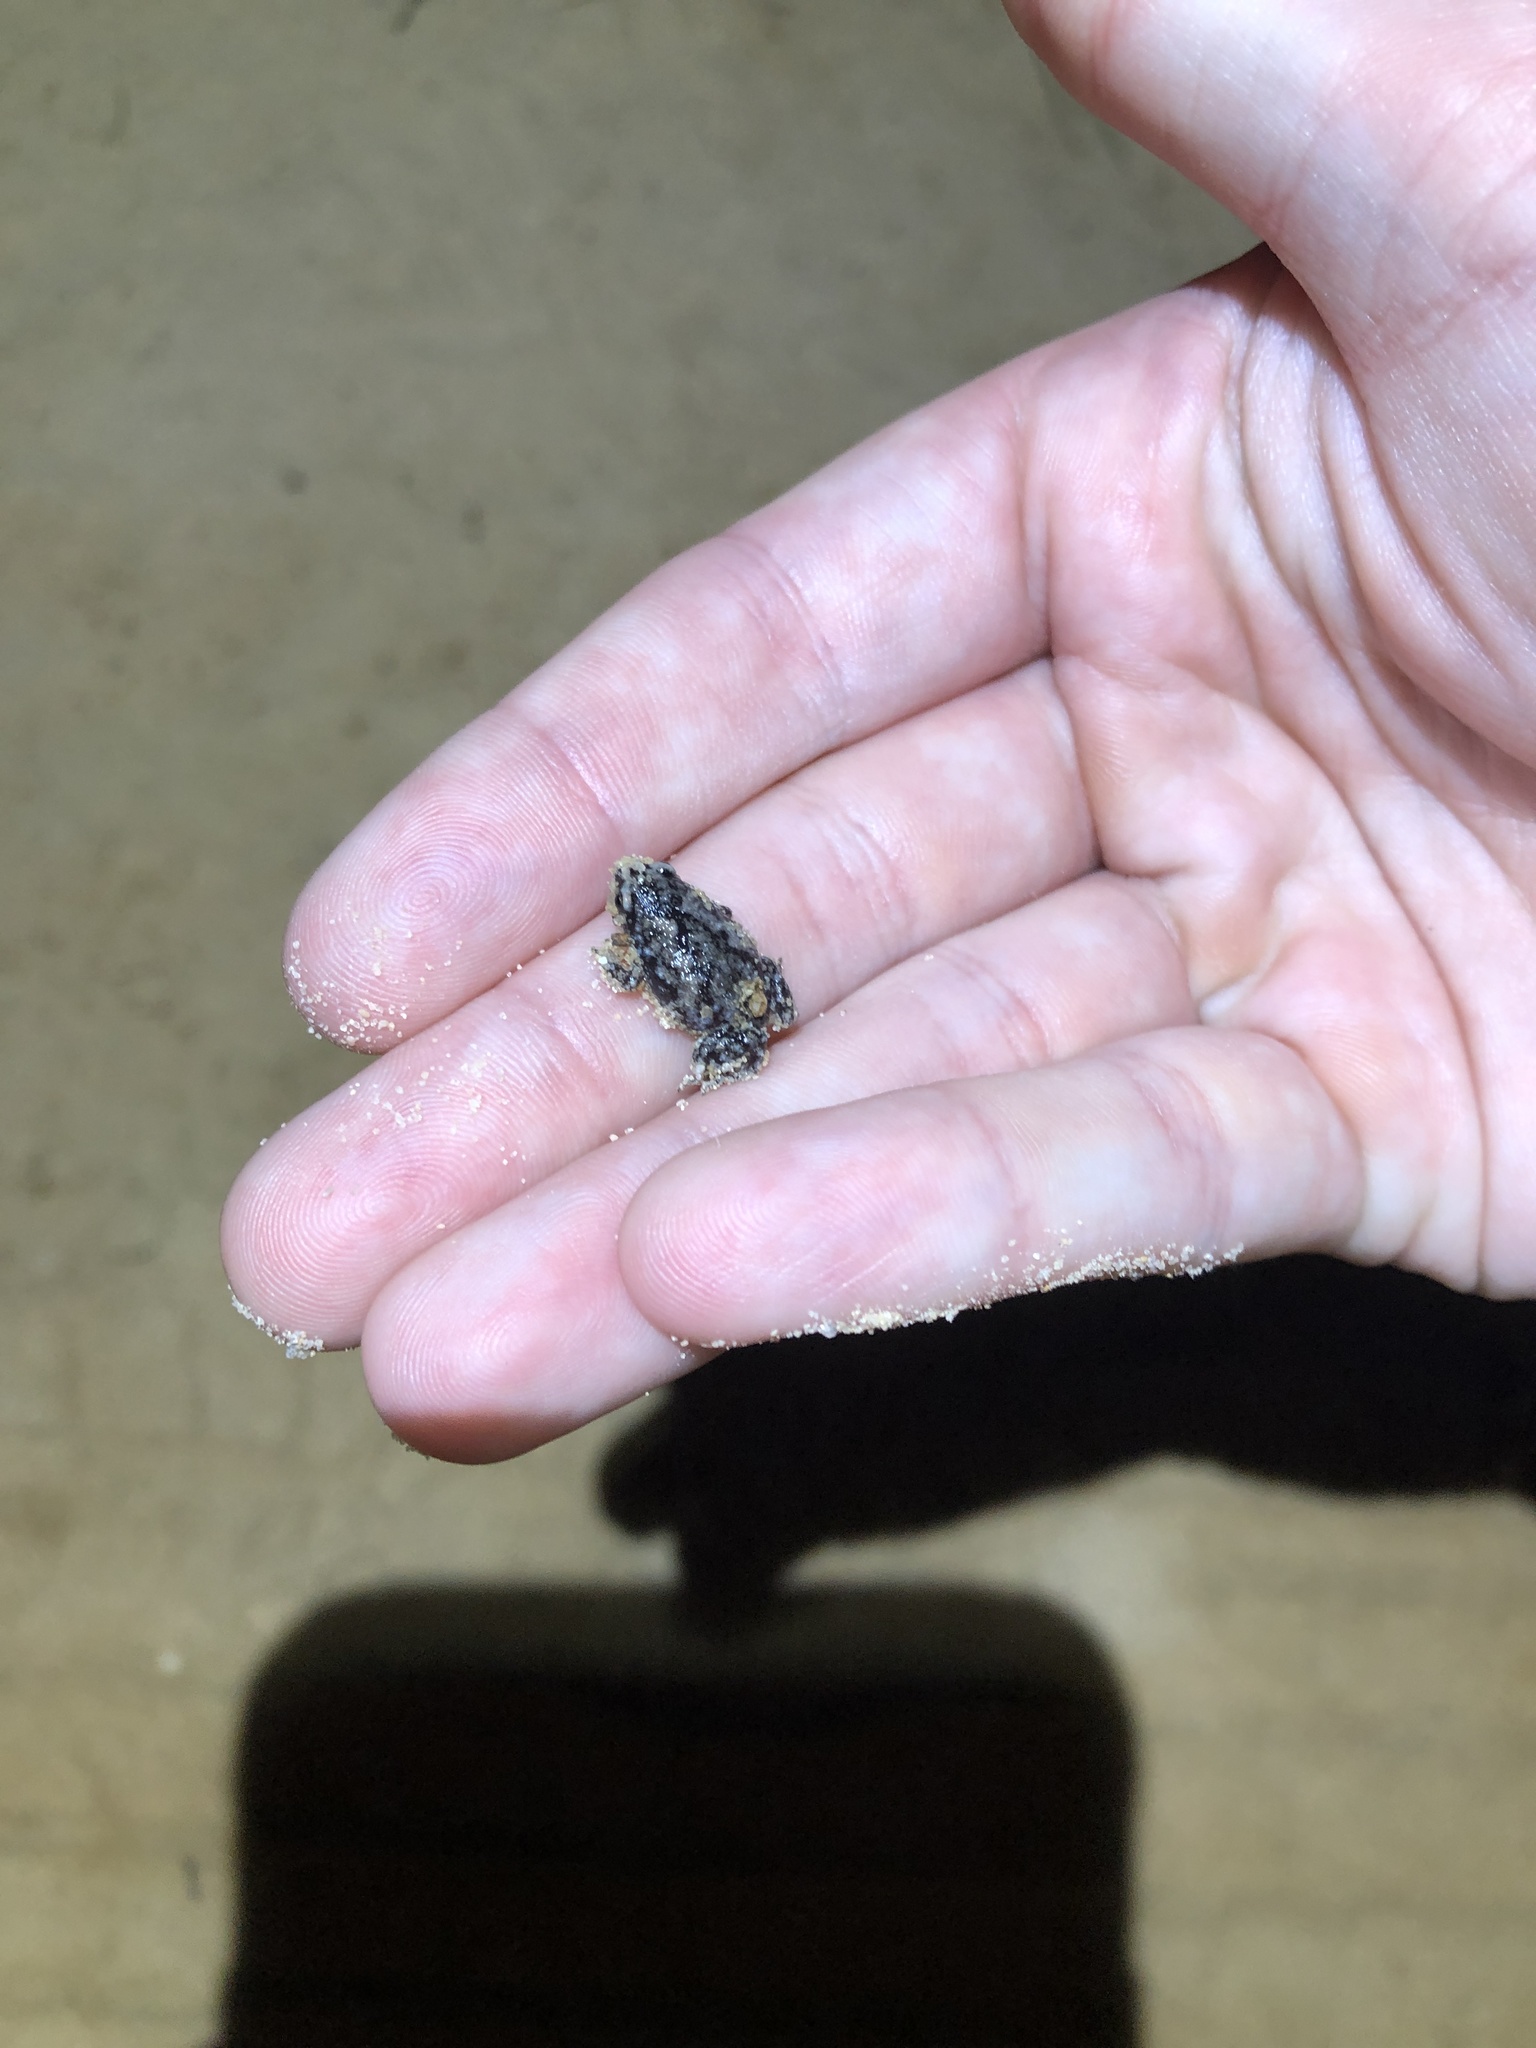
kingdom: Animalia
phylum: Chordata
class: Amphibia
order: Anura
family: Microhylidae
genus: Gastrophryne
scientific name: Gastrophryne carolinensis
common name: Eastern narrowmouth toad
